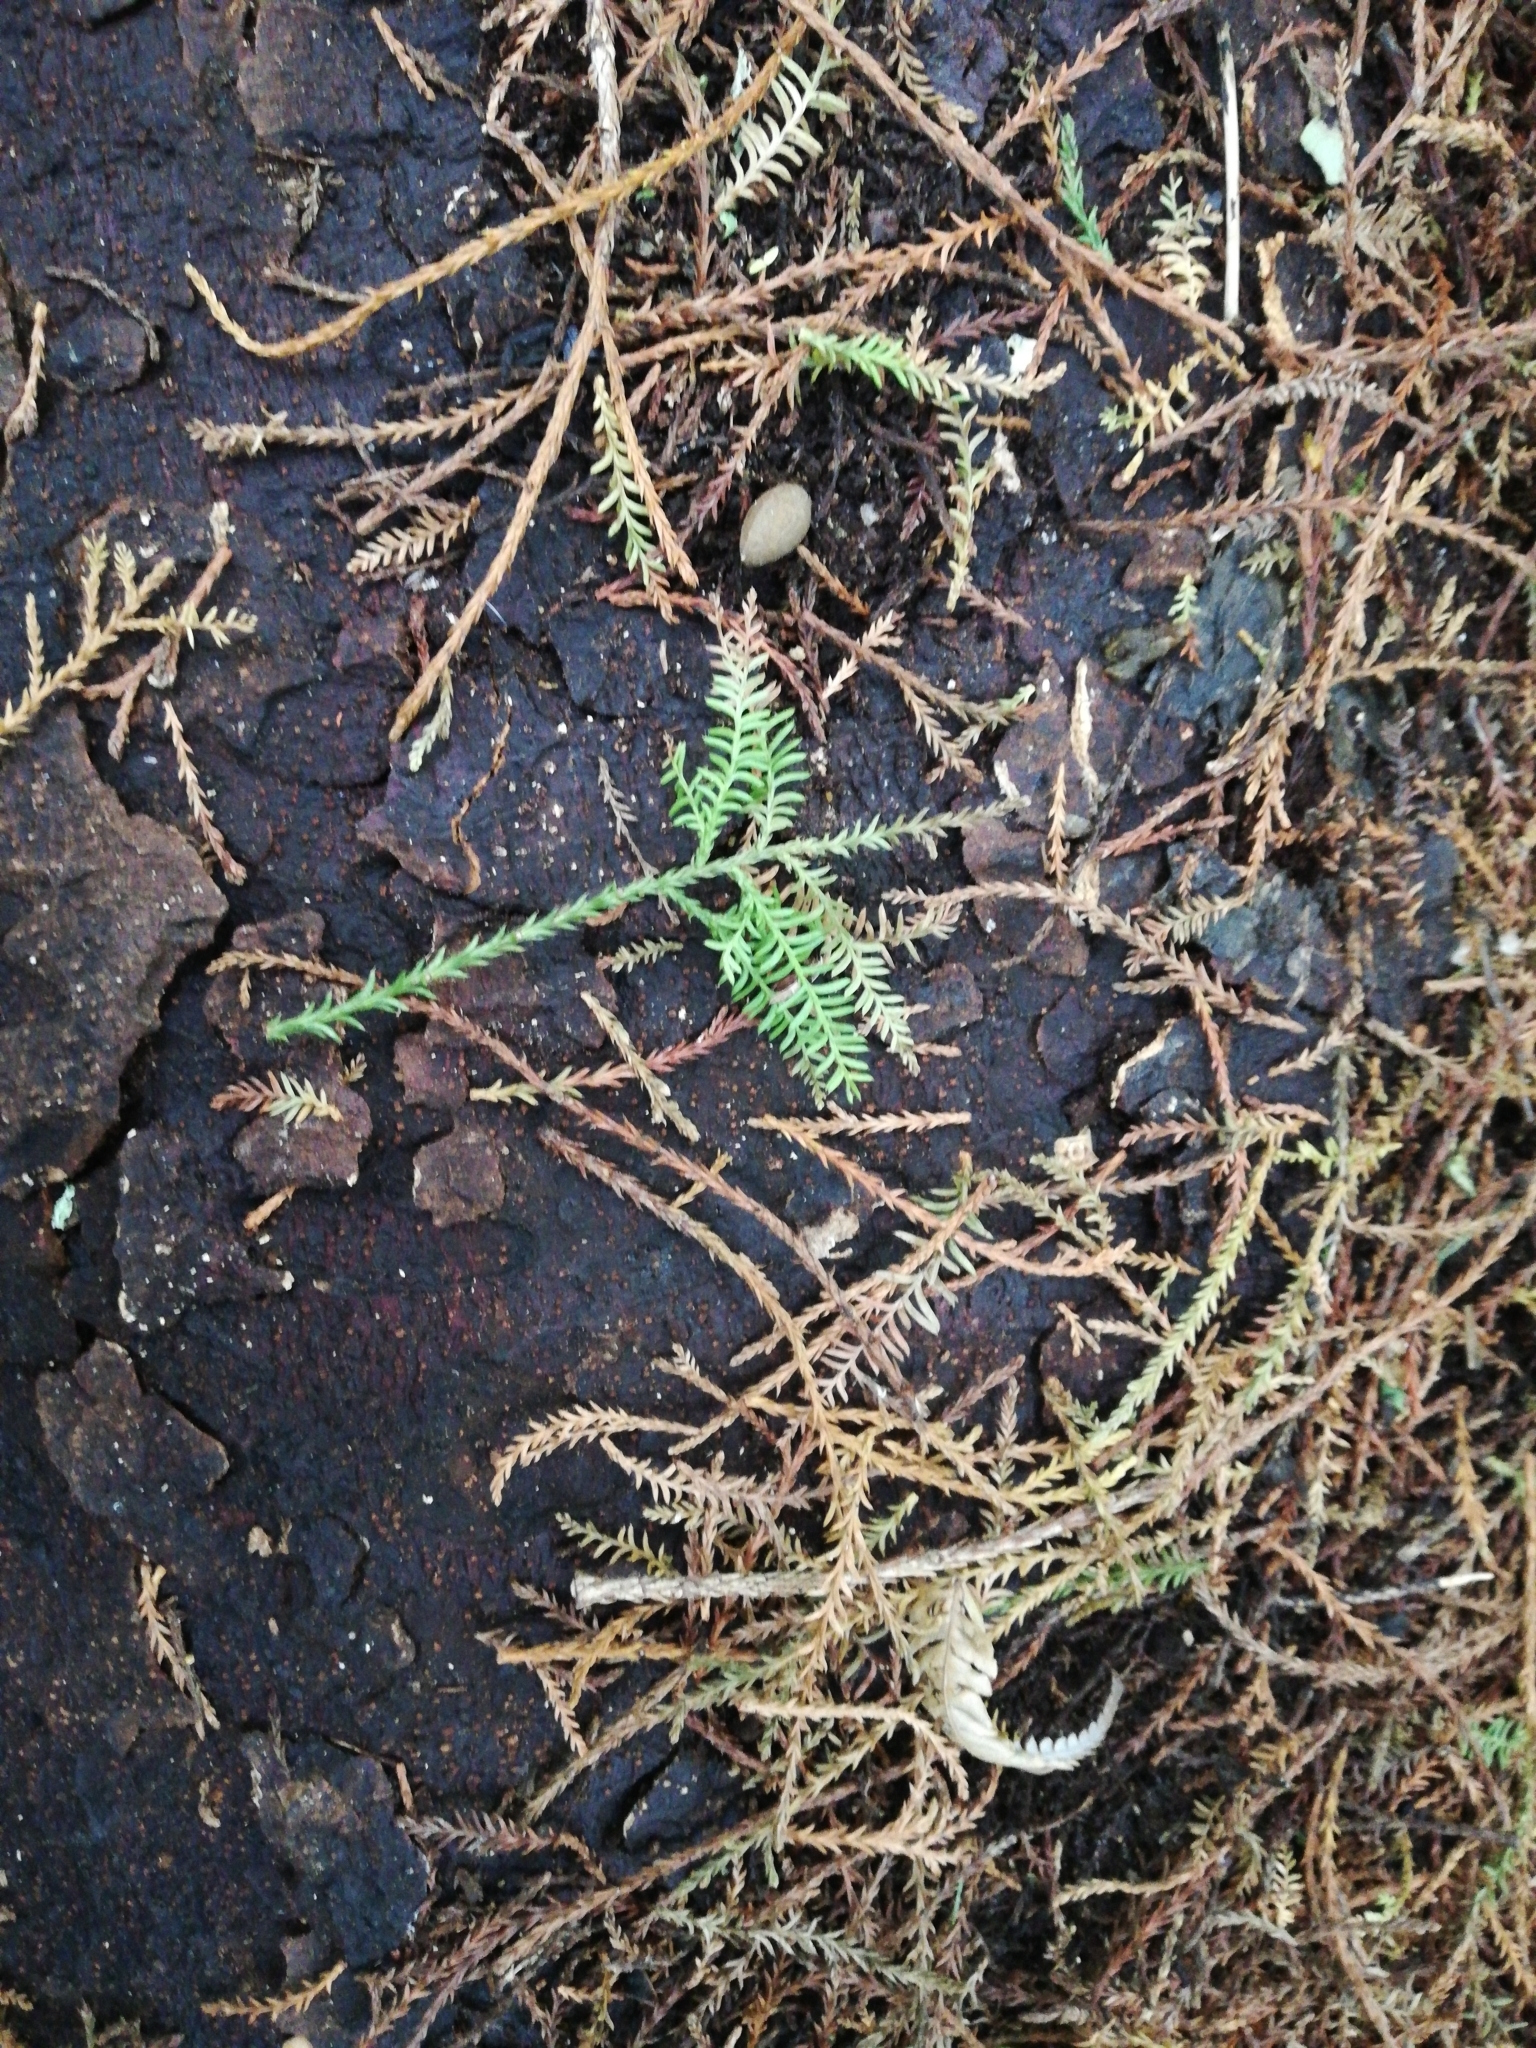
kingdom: Plantae
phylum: Tracheophyta
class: Pinopsida
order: Pinales
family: Podocarpaceae
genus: Dacrycarpus
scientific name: Dacrycarpus dacrydioides
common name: White pine
